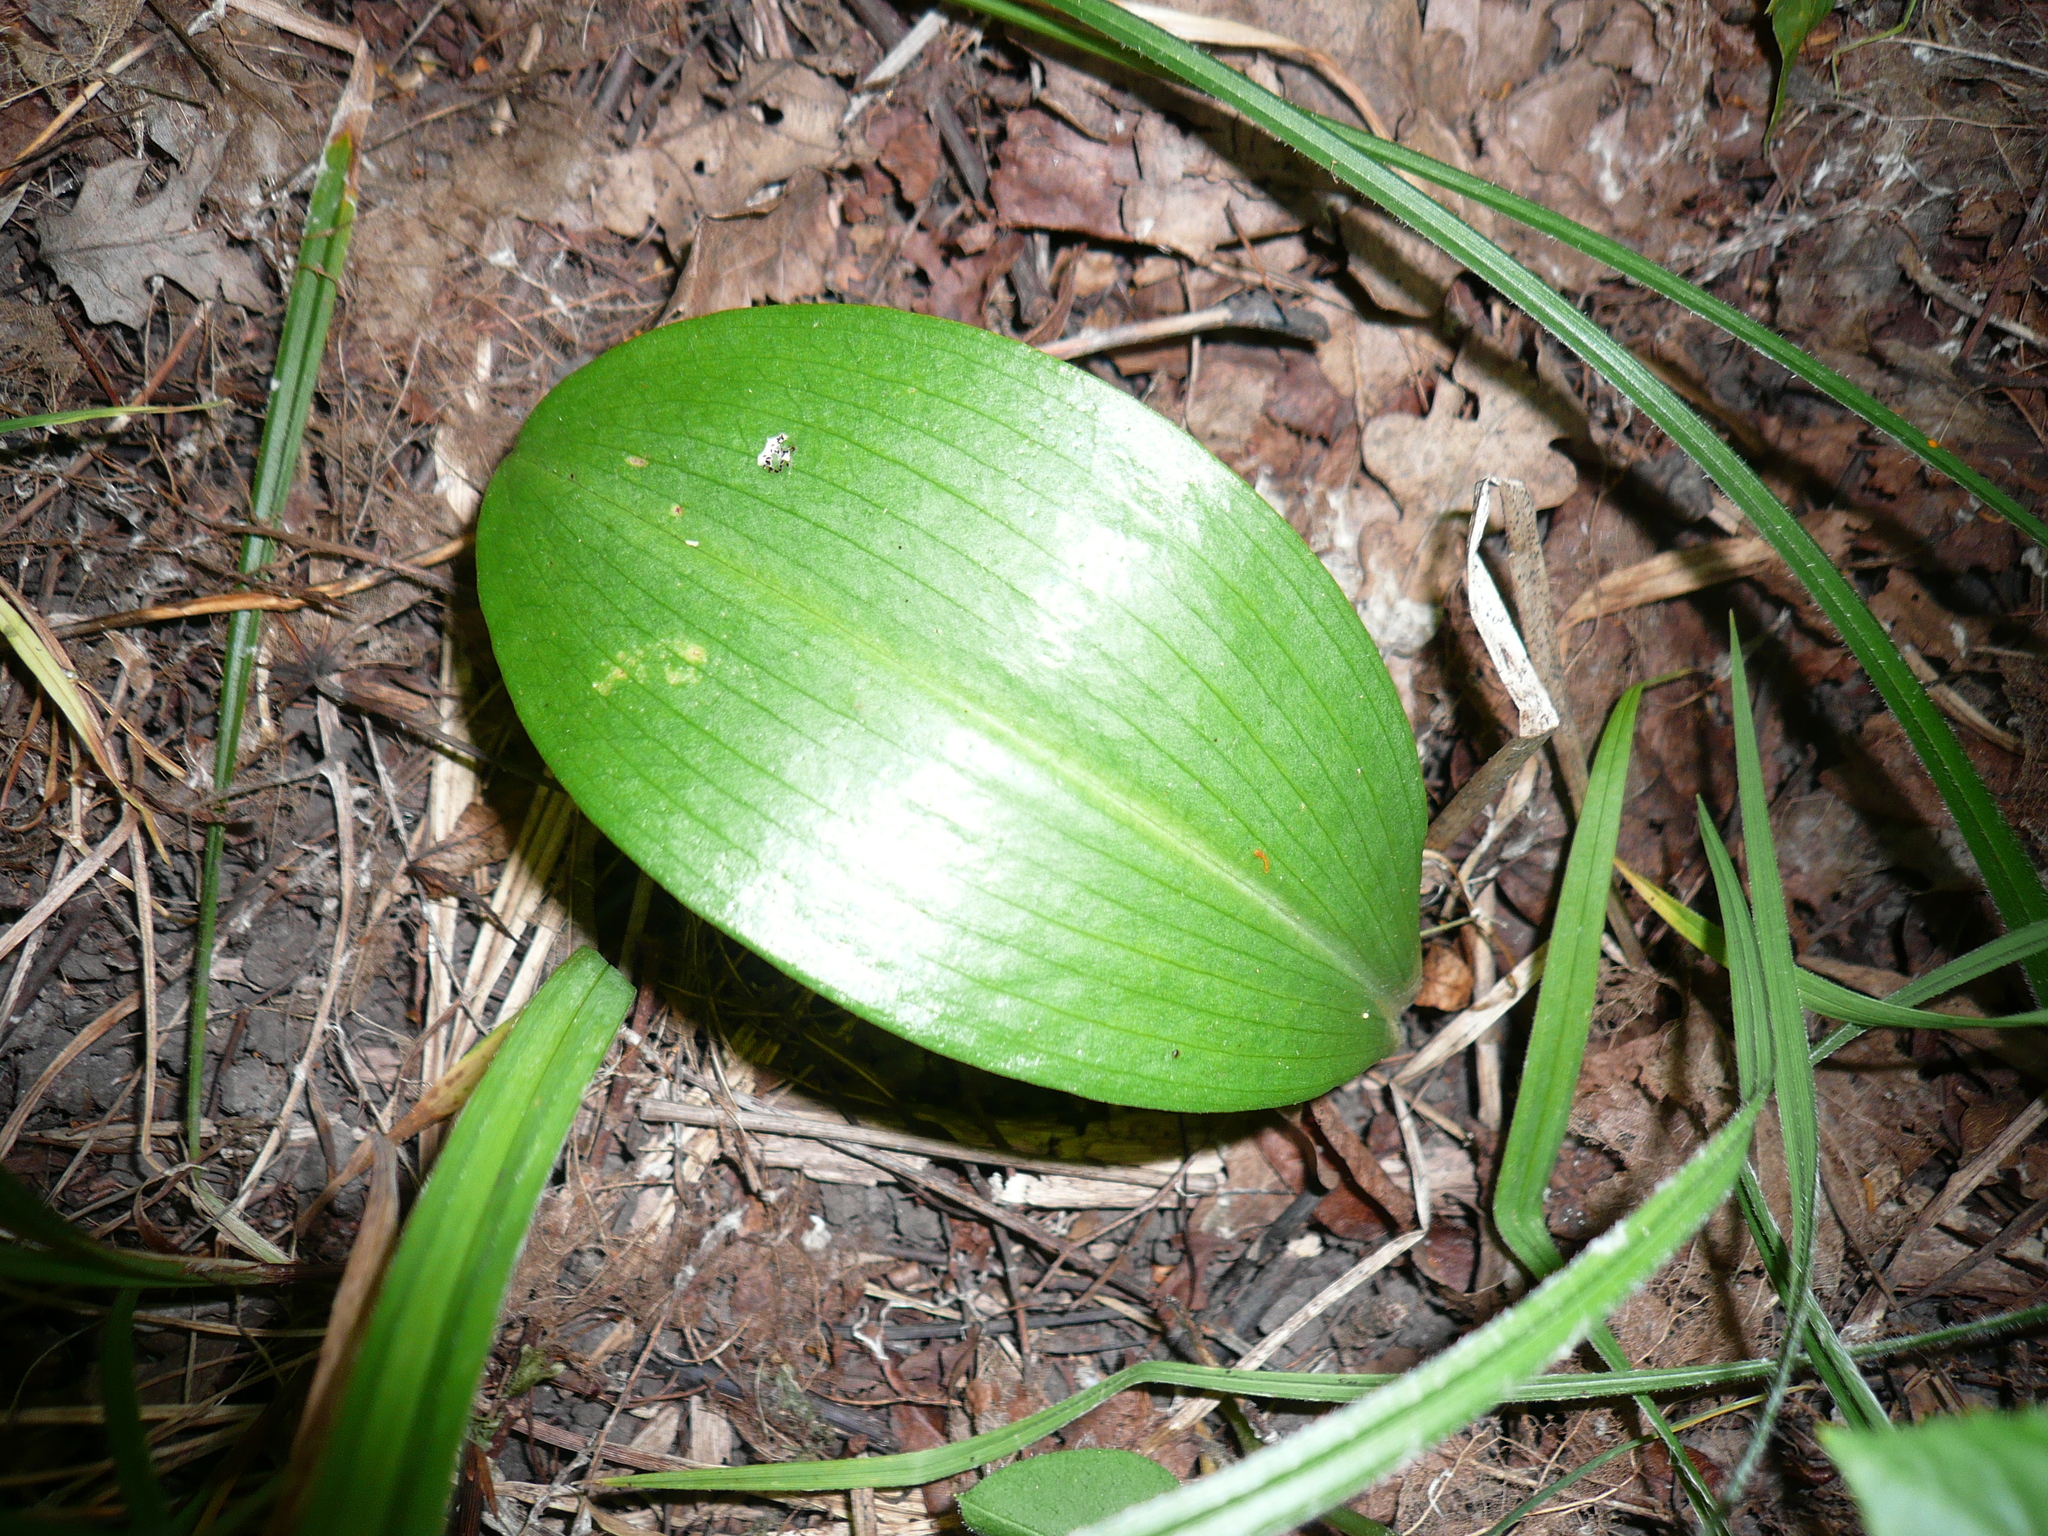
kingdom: Plantae
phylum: Tracheophyta
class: Liliopsida
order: Asparagales
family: Orchidaceae
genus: Platanthera
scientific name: Platanthera
